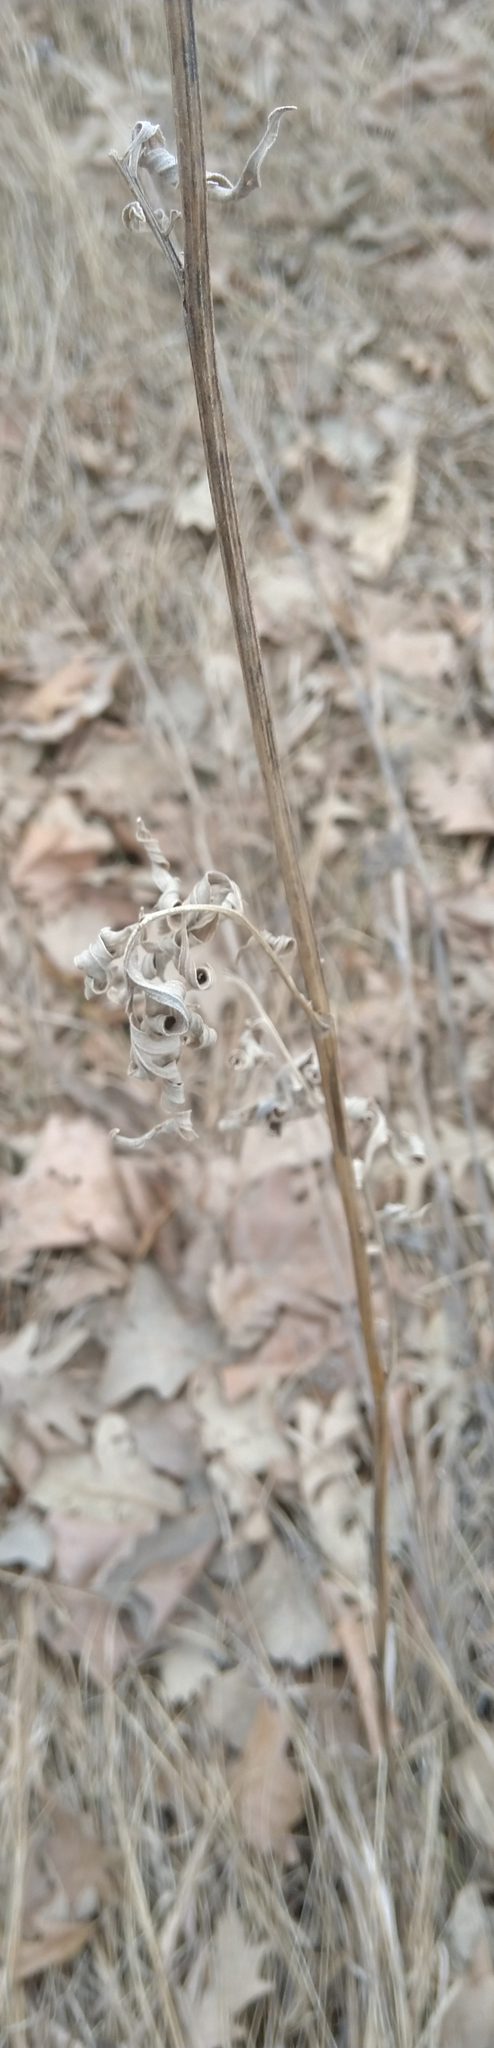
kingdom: Plantae
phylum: Tracheophyta
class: Magnoliopsida
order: Asterales
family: Asteraceae
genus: Ratibida
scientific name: Ratibida pinnata
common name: Drooping prairie-coneflower
